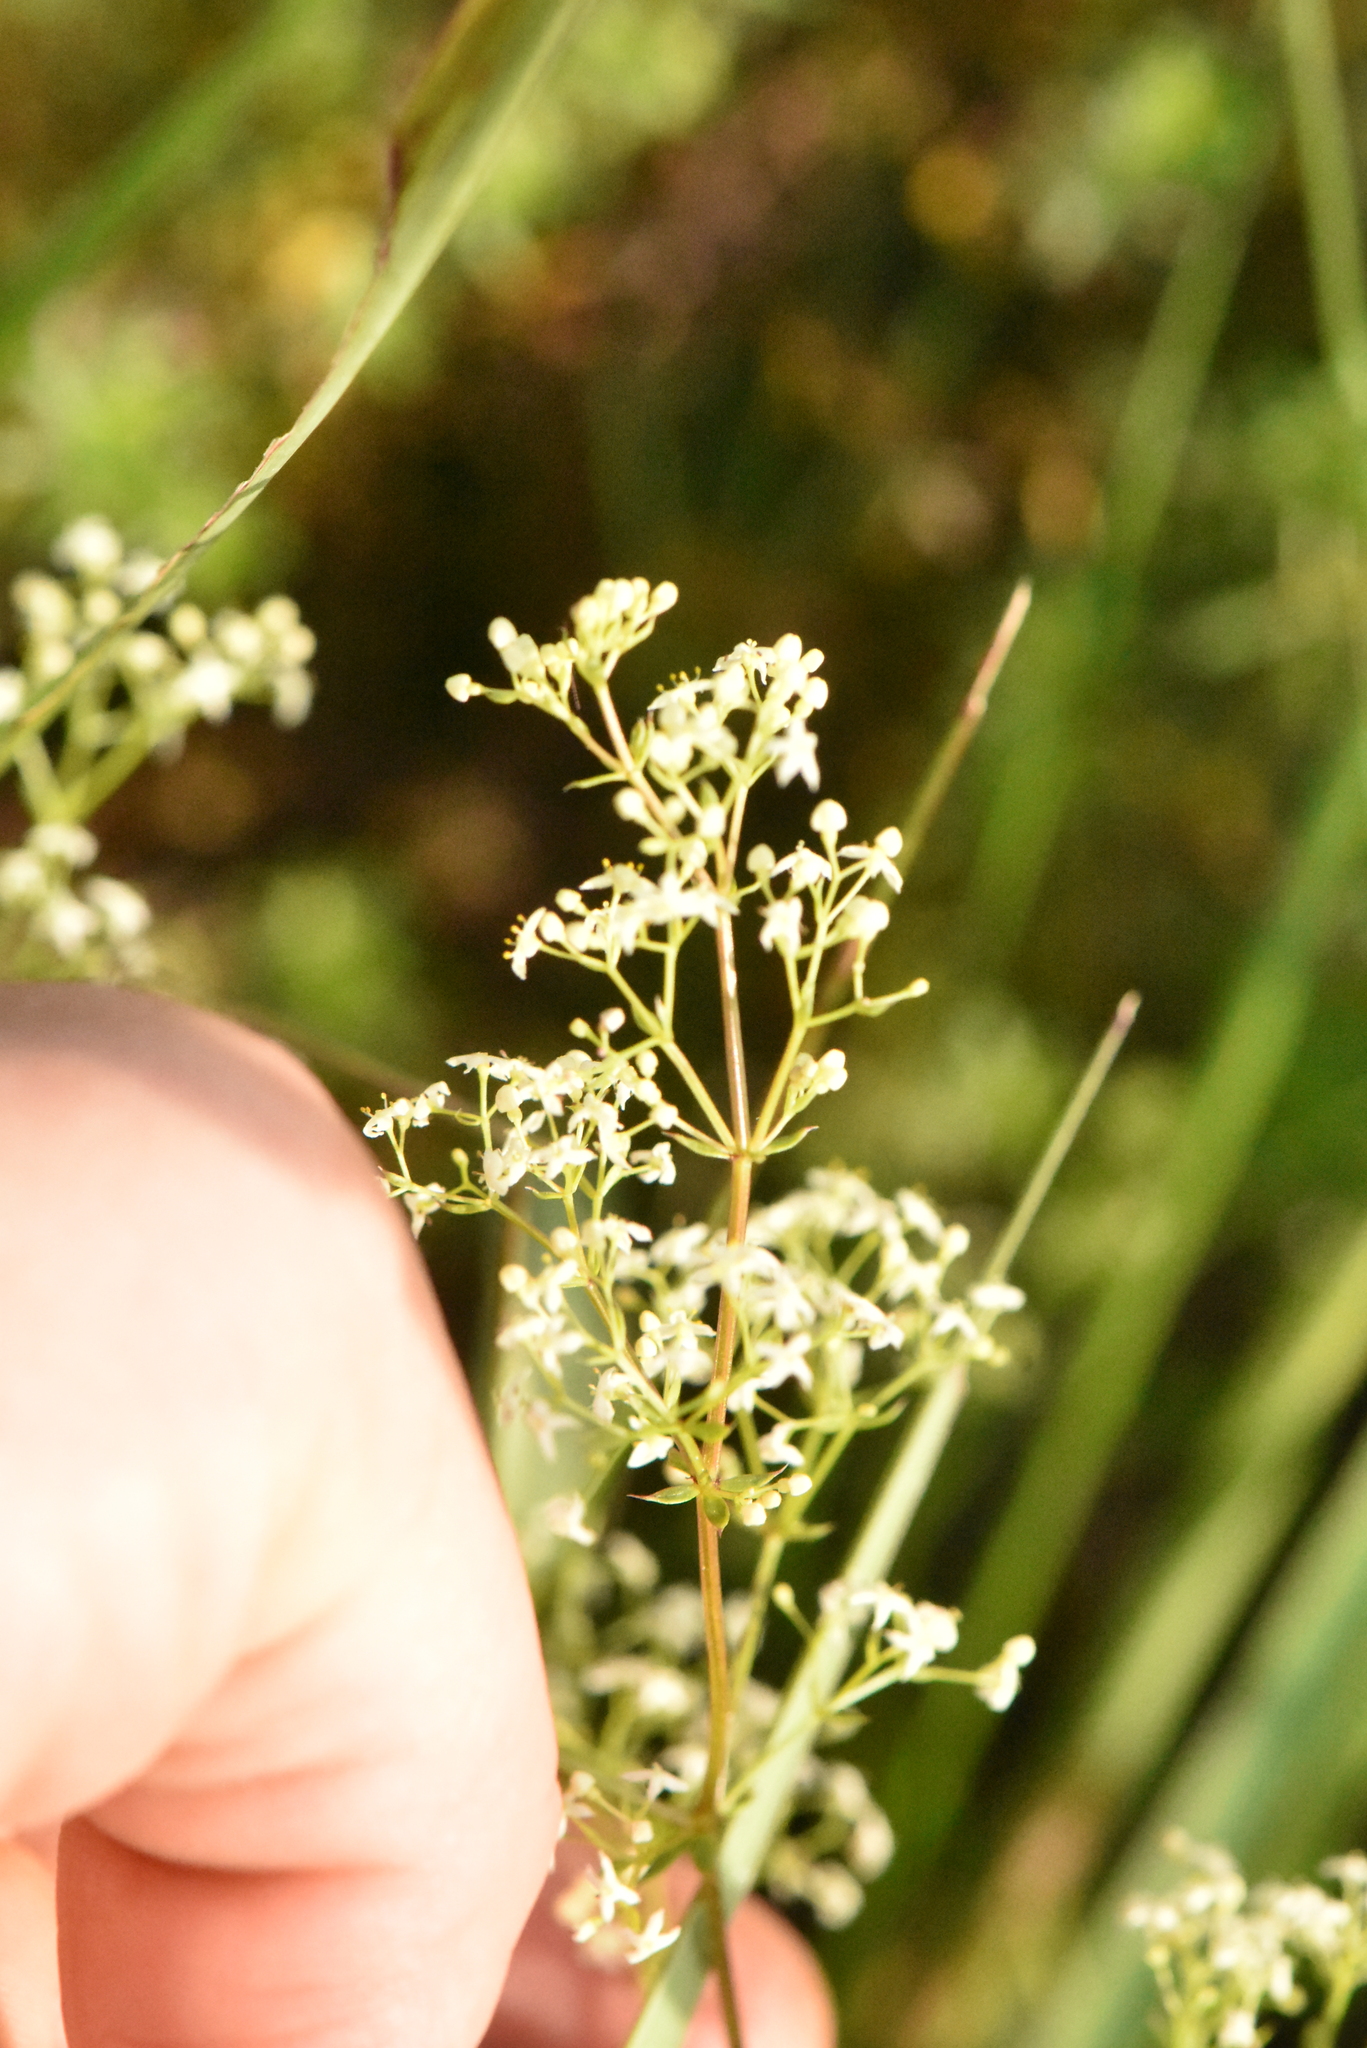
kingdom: Plantae
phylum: Tracheophyta
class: Magnoliopsida
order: Gentianales
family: Rubiaceae
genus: Galium
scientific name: Galium mollugo
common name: Hedge bedstraw
